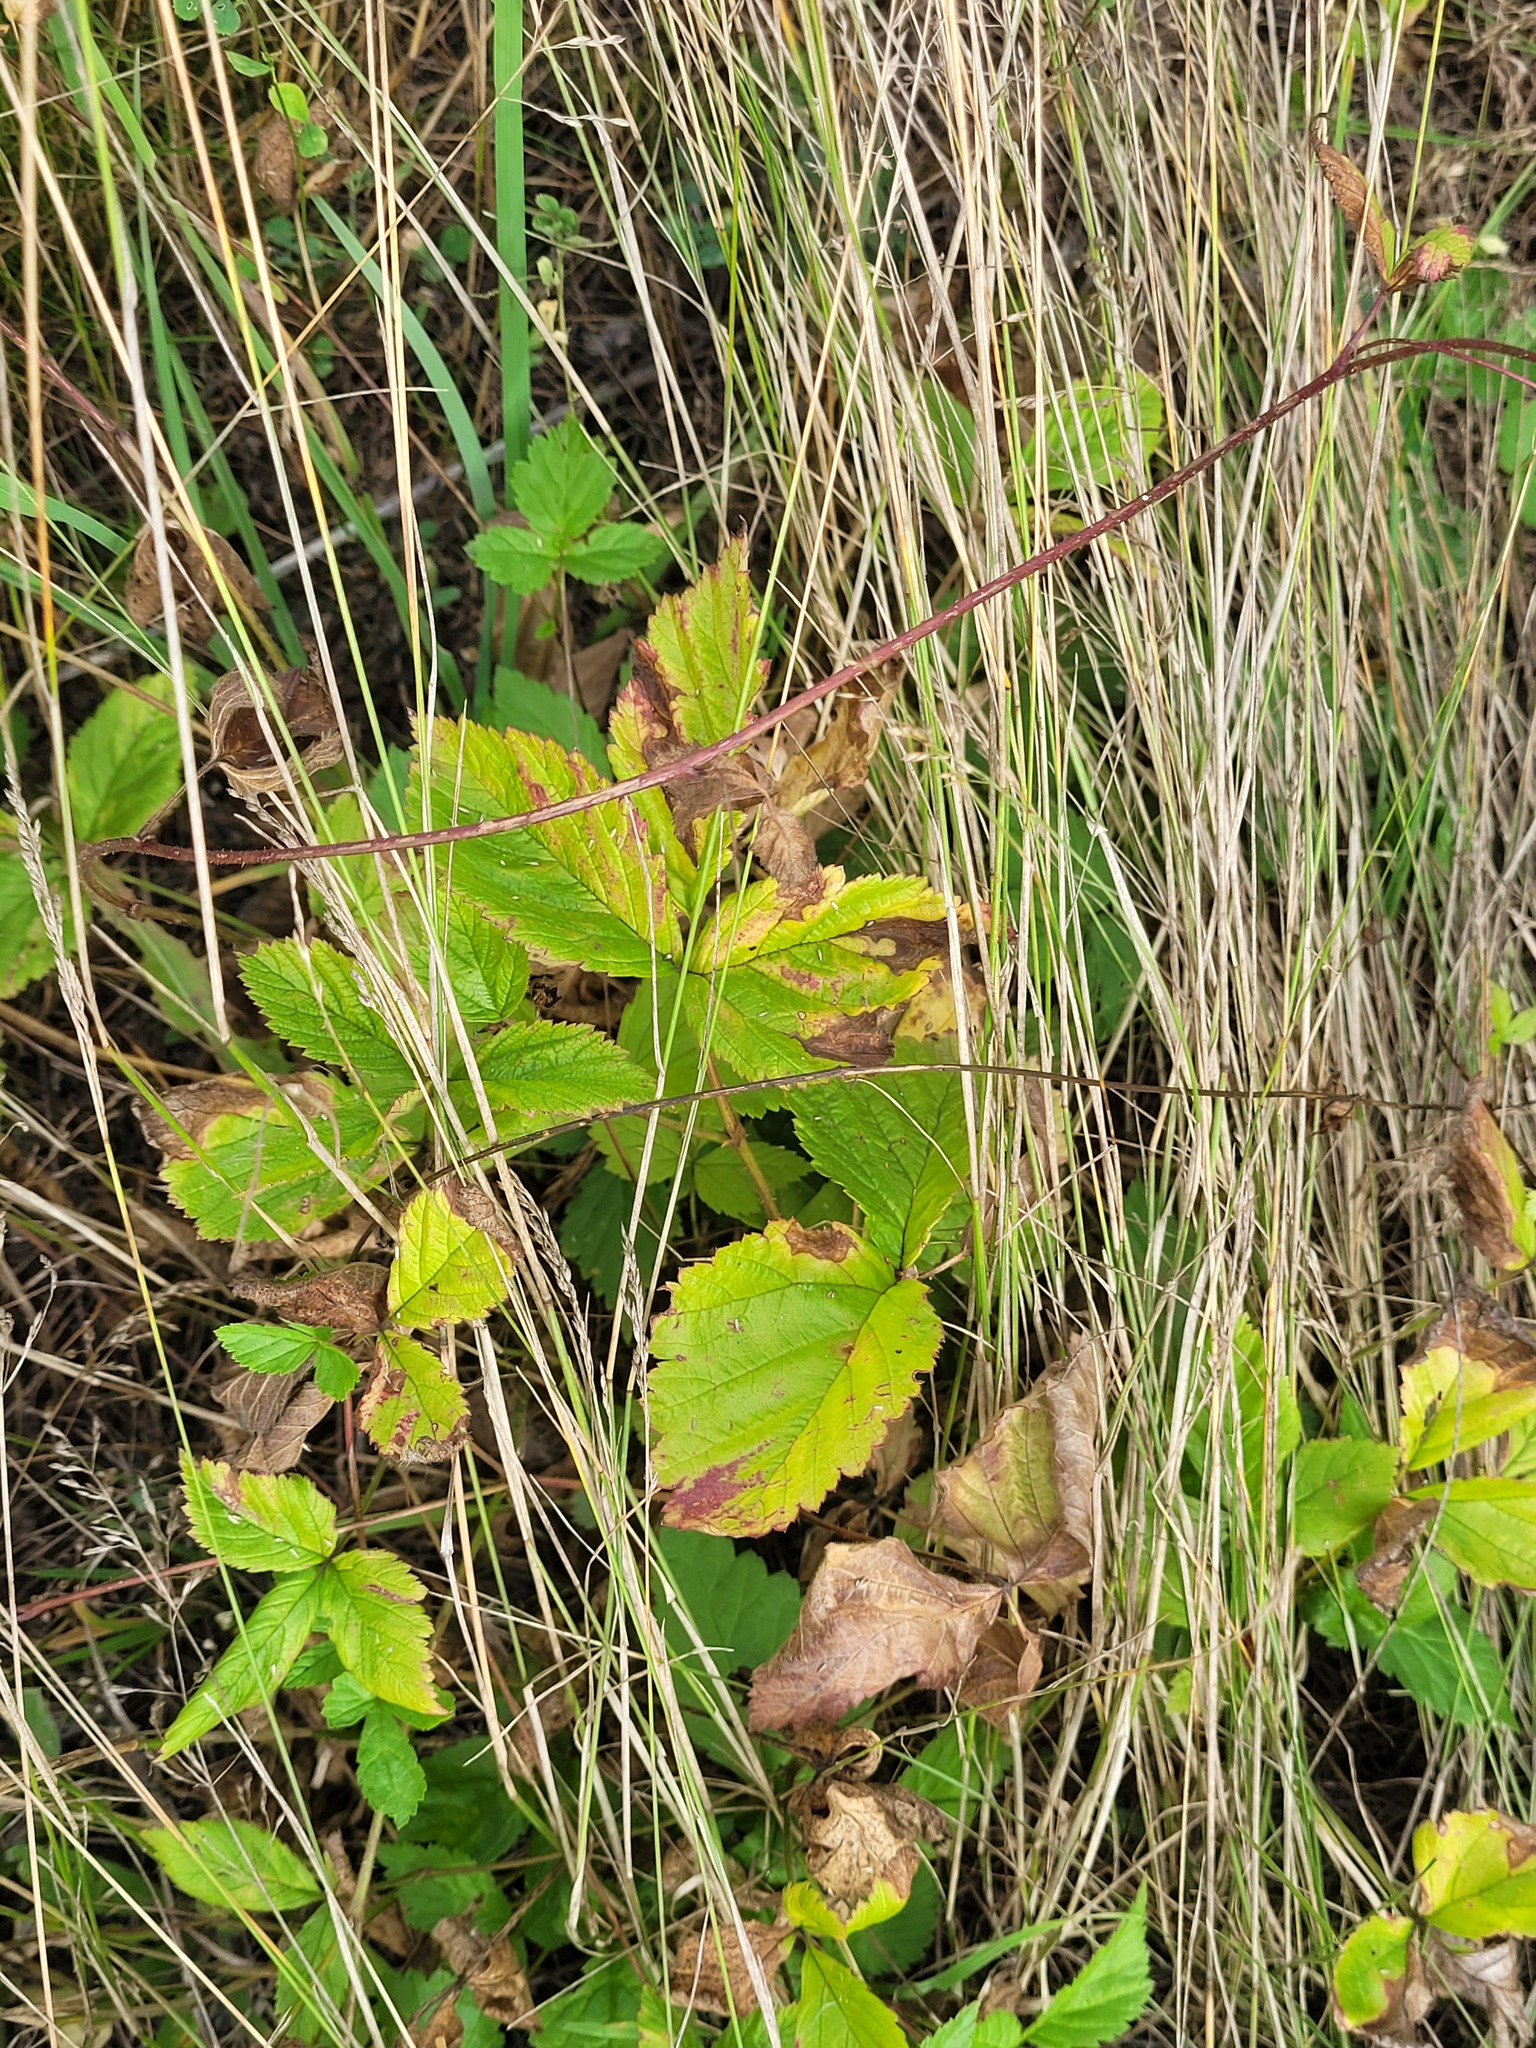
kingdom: Plantae
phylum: Tracheophyta
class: Magnoliopsida
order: Rosales
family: Rosaceae
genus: Rubus
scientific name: Rubus saxatilis
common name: Stone bramble
